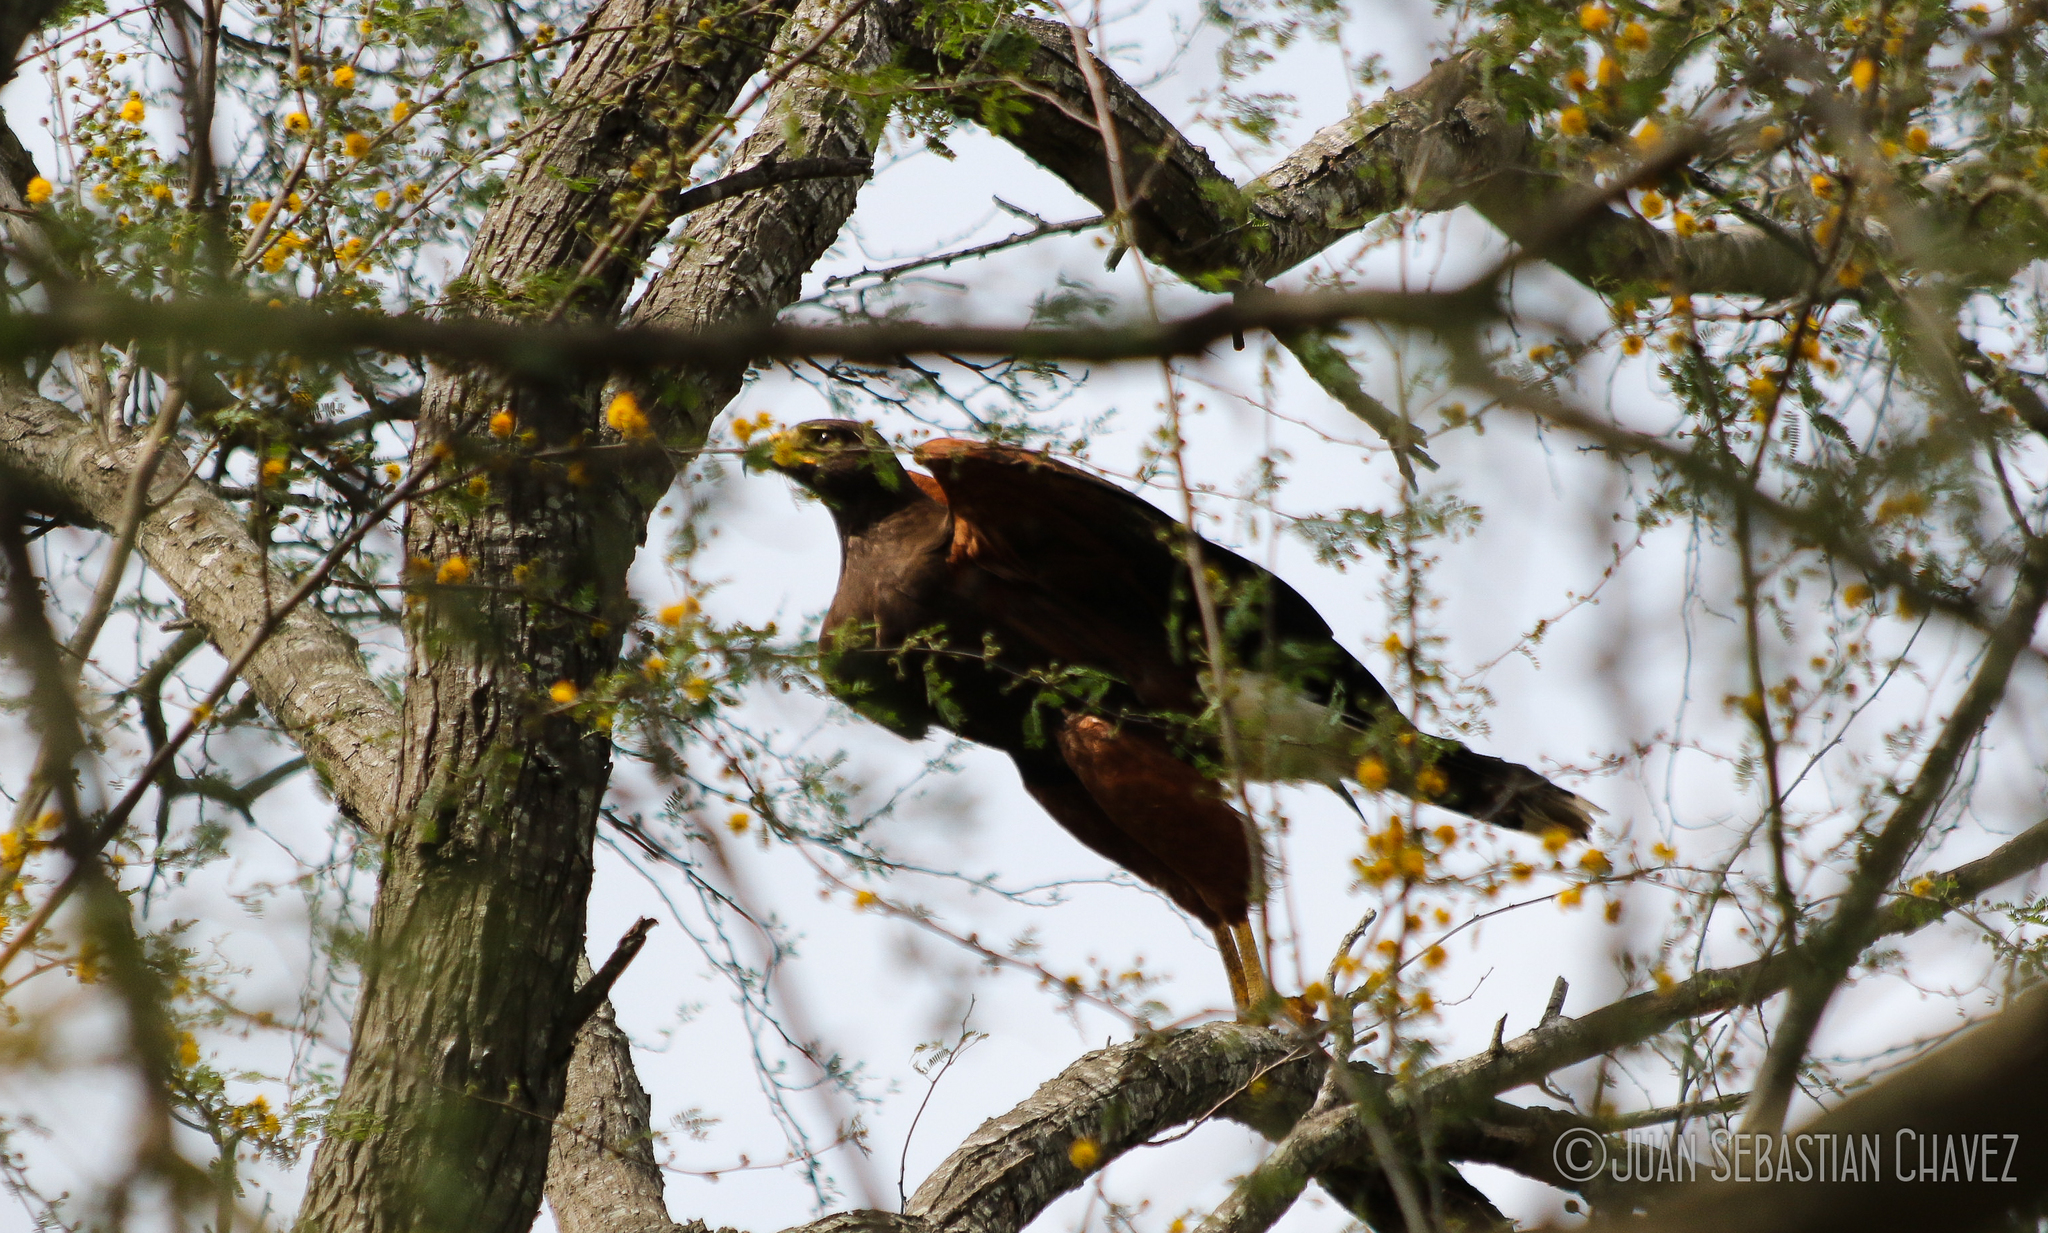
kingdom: Animalia
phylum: Chordata
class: Aves
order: Accipitriformes
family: Accipitridae
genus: Parabuteo
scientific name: Parabuteo unicinctus
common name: Harris's hawk
